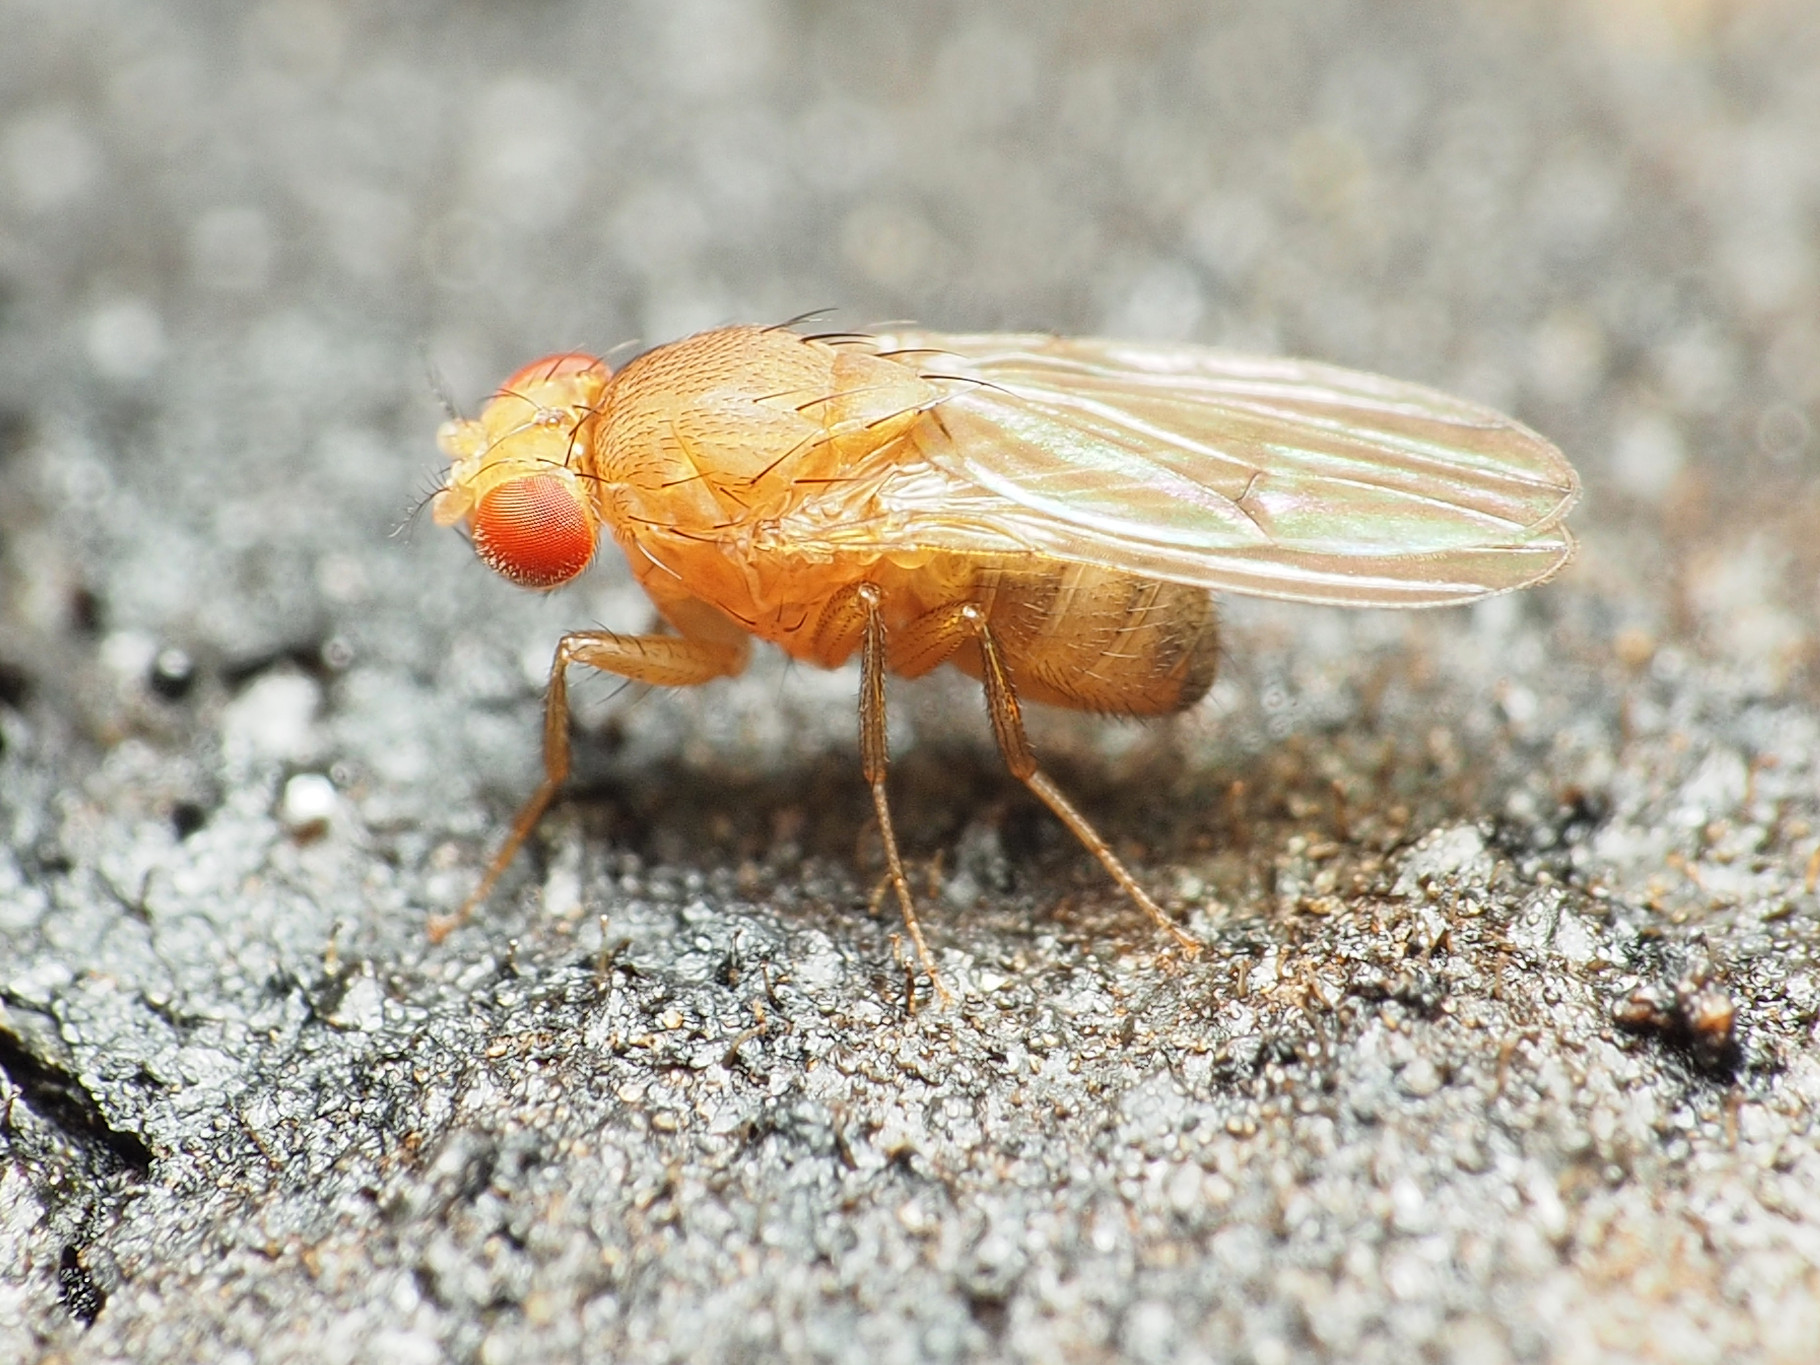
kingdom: Animalia
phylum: Arthropoda
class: Insecta
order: Diptera
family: Drosophilidae
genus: Drosophila
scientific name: Drosophila immigrans
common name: Pomace fly
